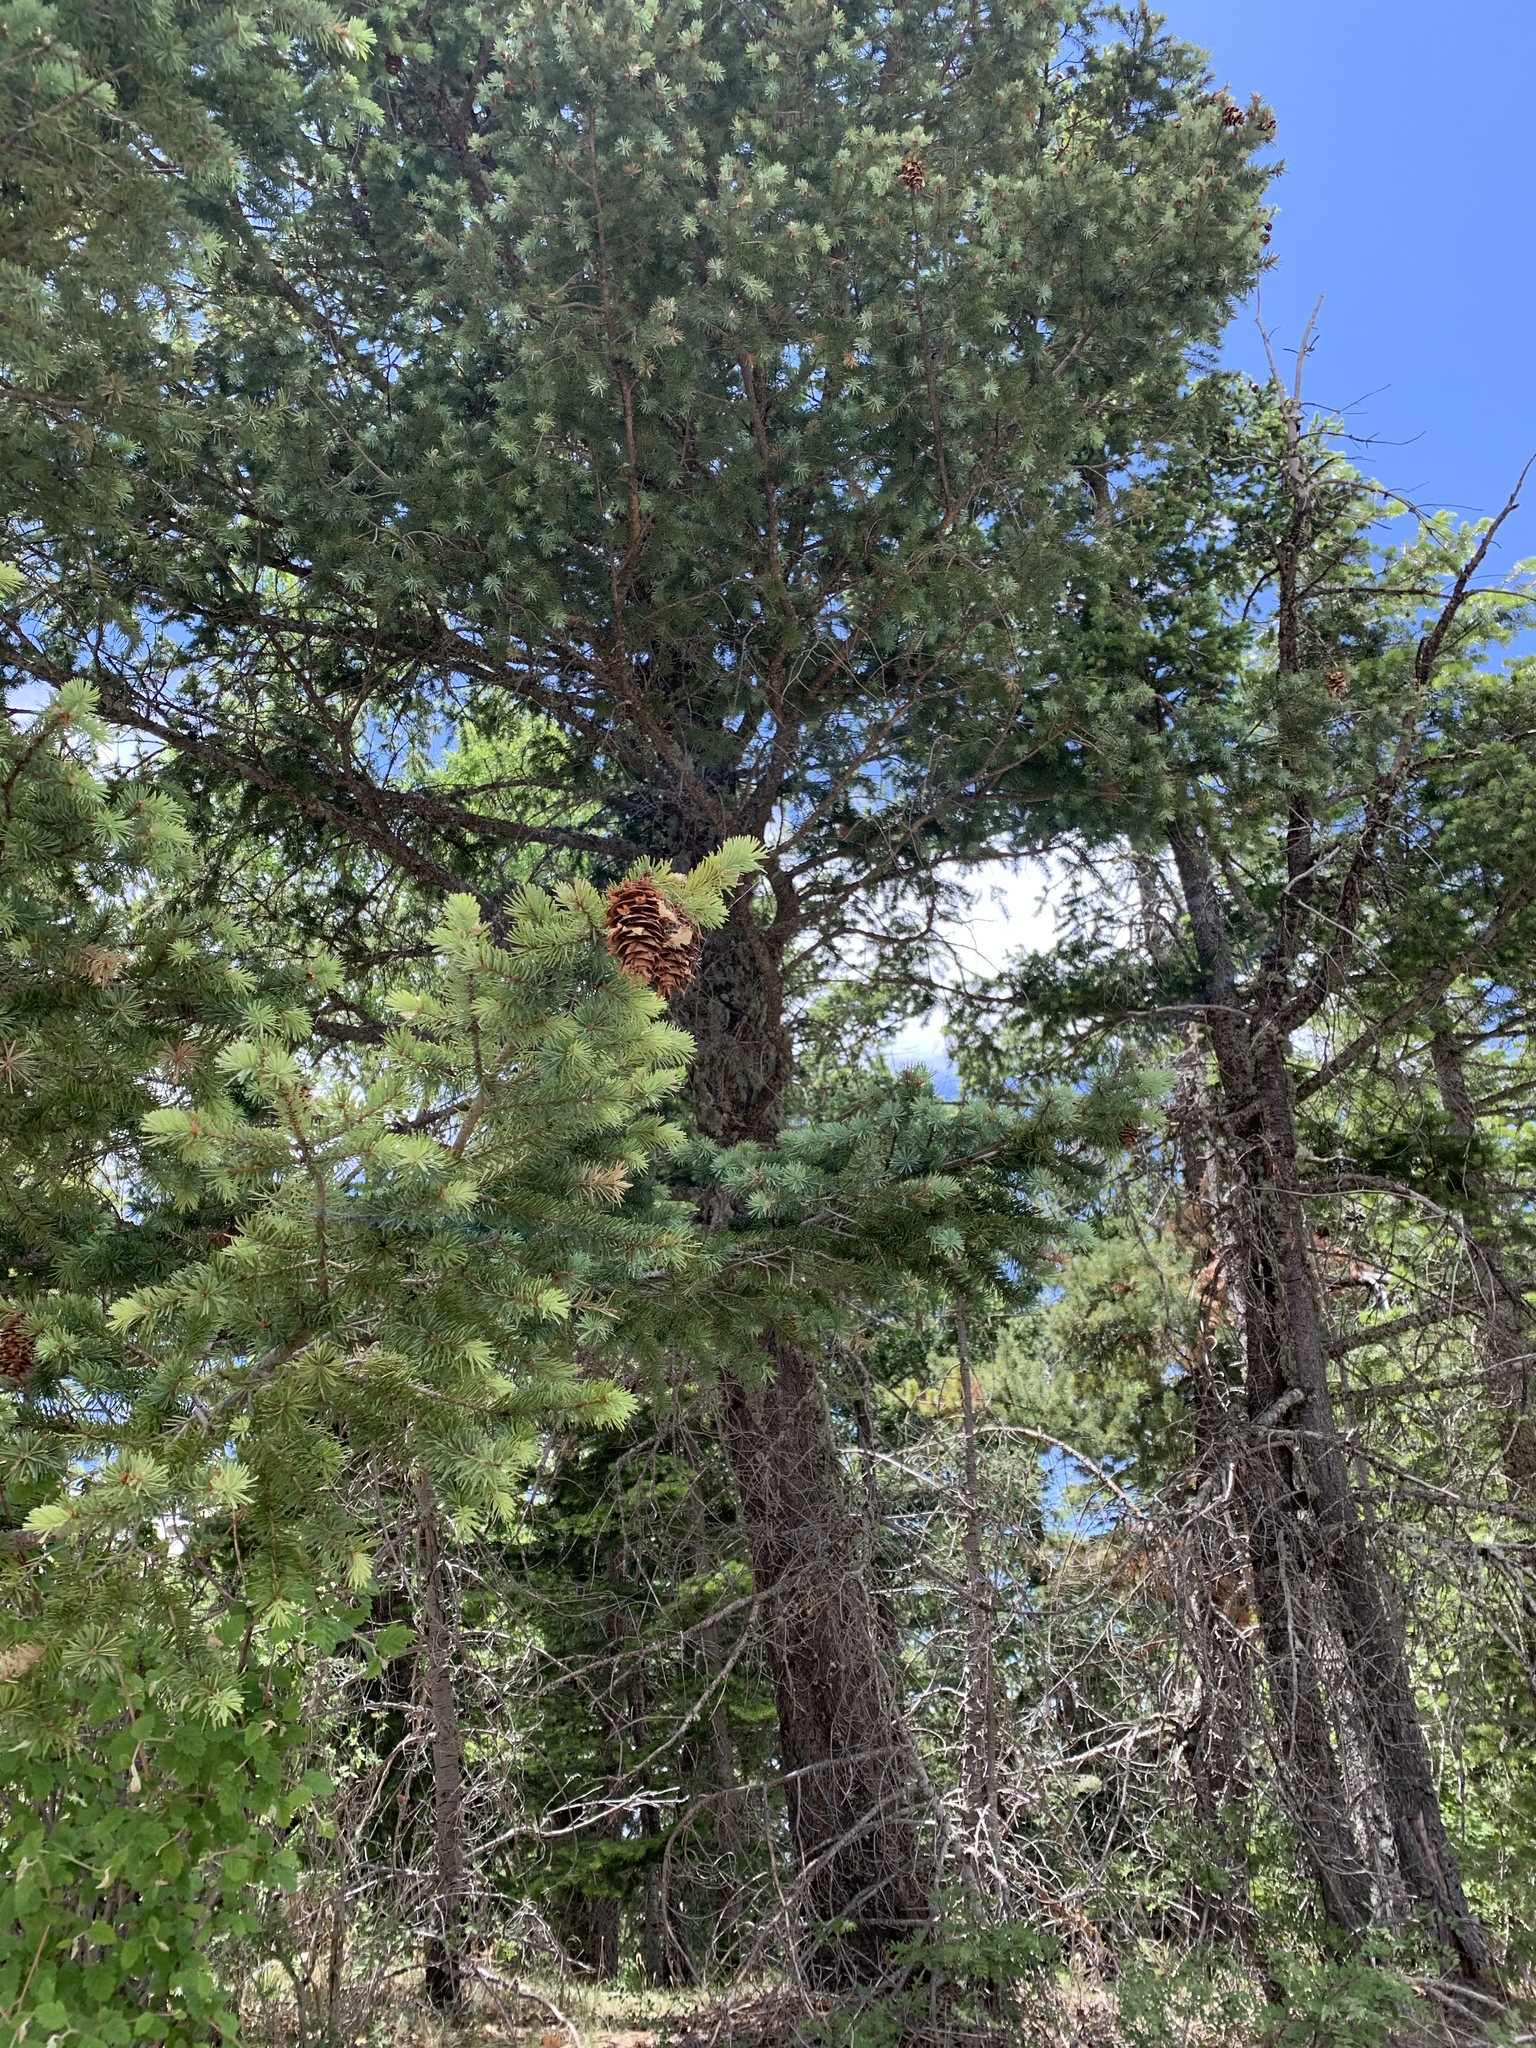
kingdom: Plantae
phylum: Tracheophyta
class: Pinopsida
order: Pinales
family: Pinaceae
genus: Pseudotsuga
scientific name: Pseudotsuga menziesii
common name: Douglas fir
